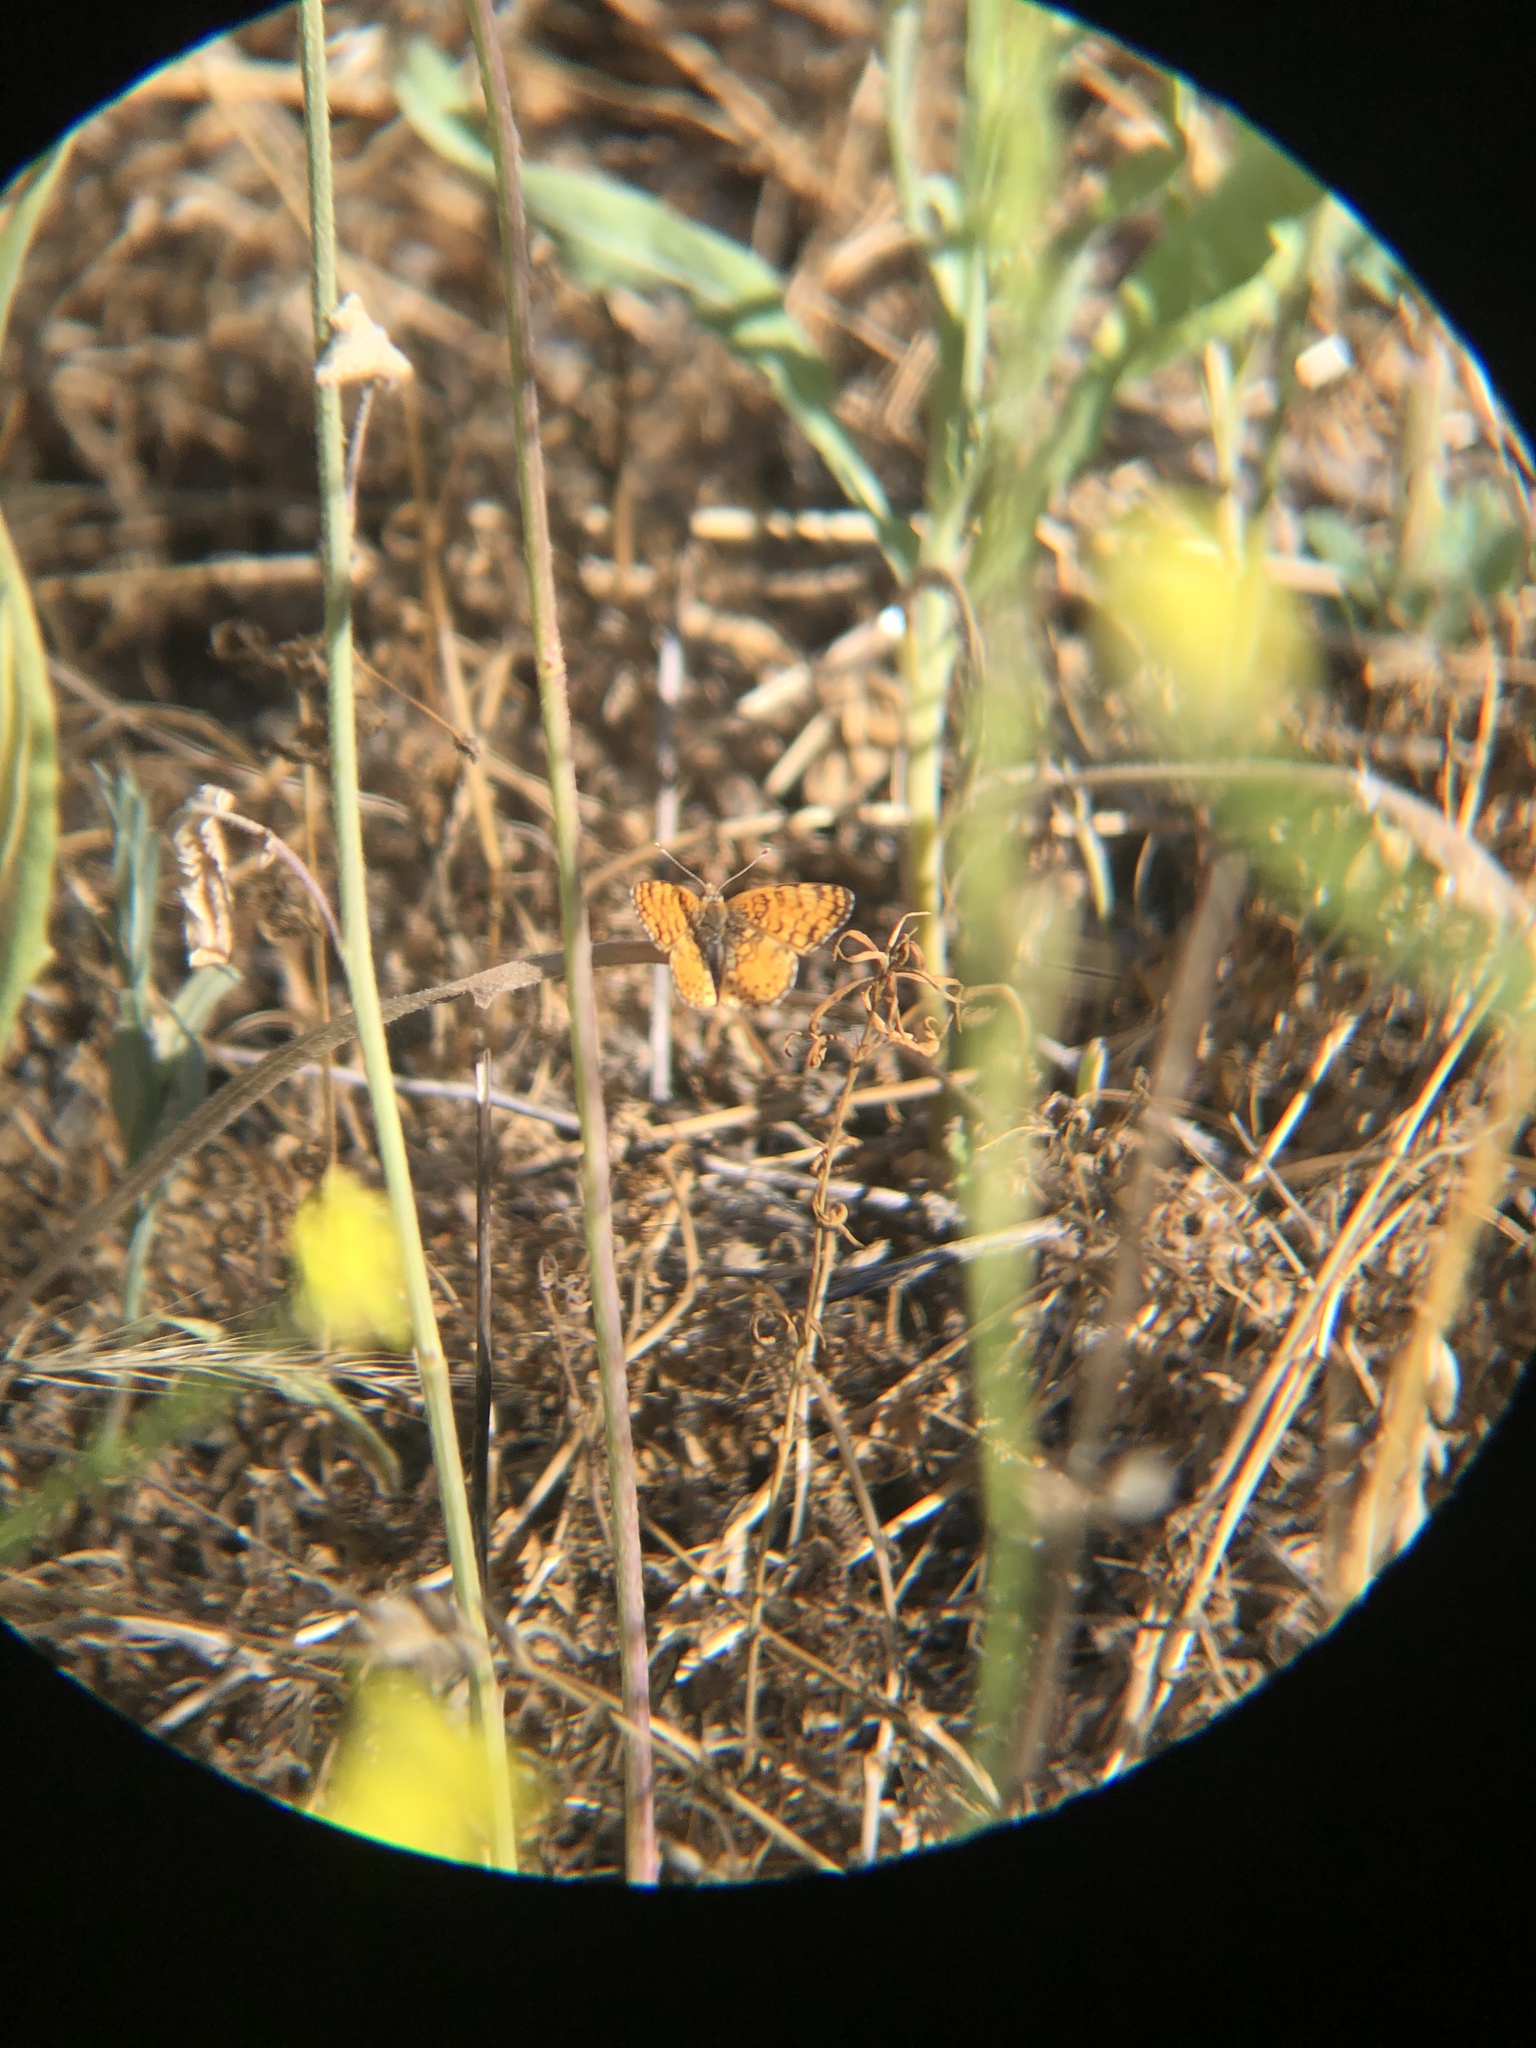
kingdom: Animalia
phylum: Arthropoda
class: Insecta
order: Lepidoptera
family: Nymphalidae
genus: Eresia
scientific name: Eresia aveyrona
